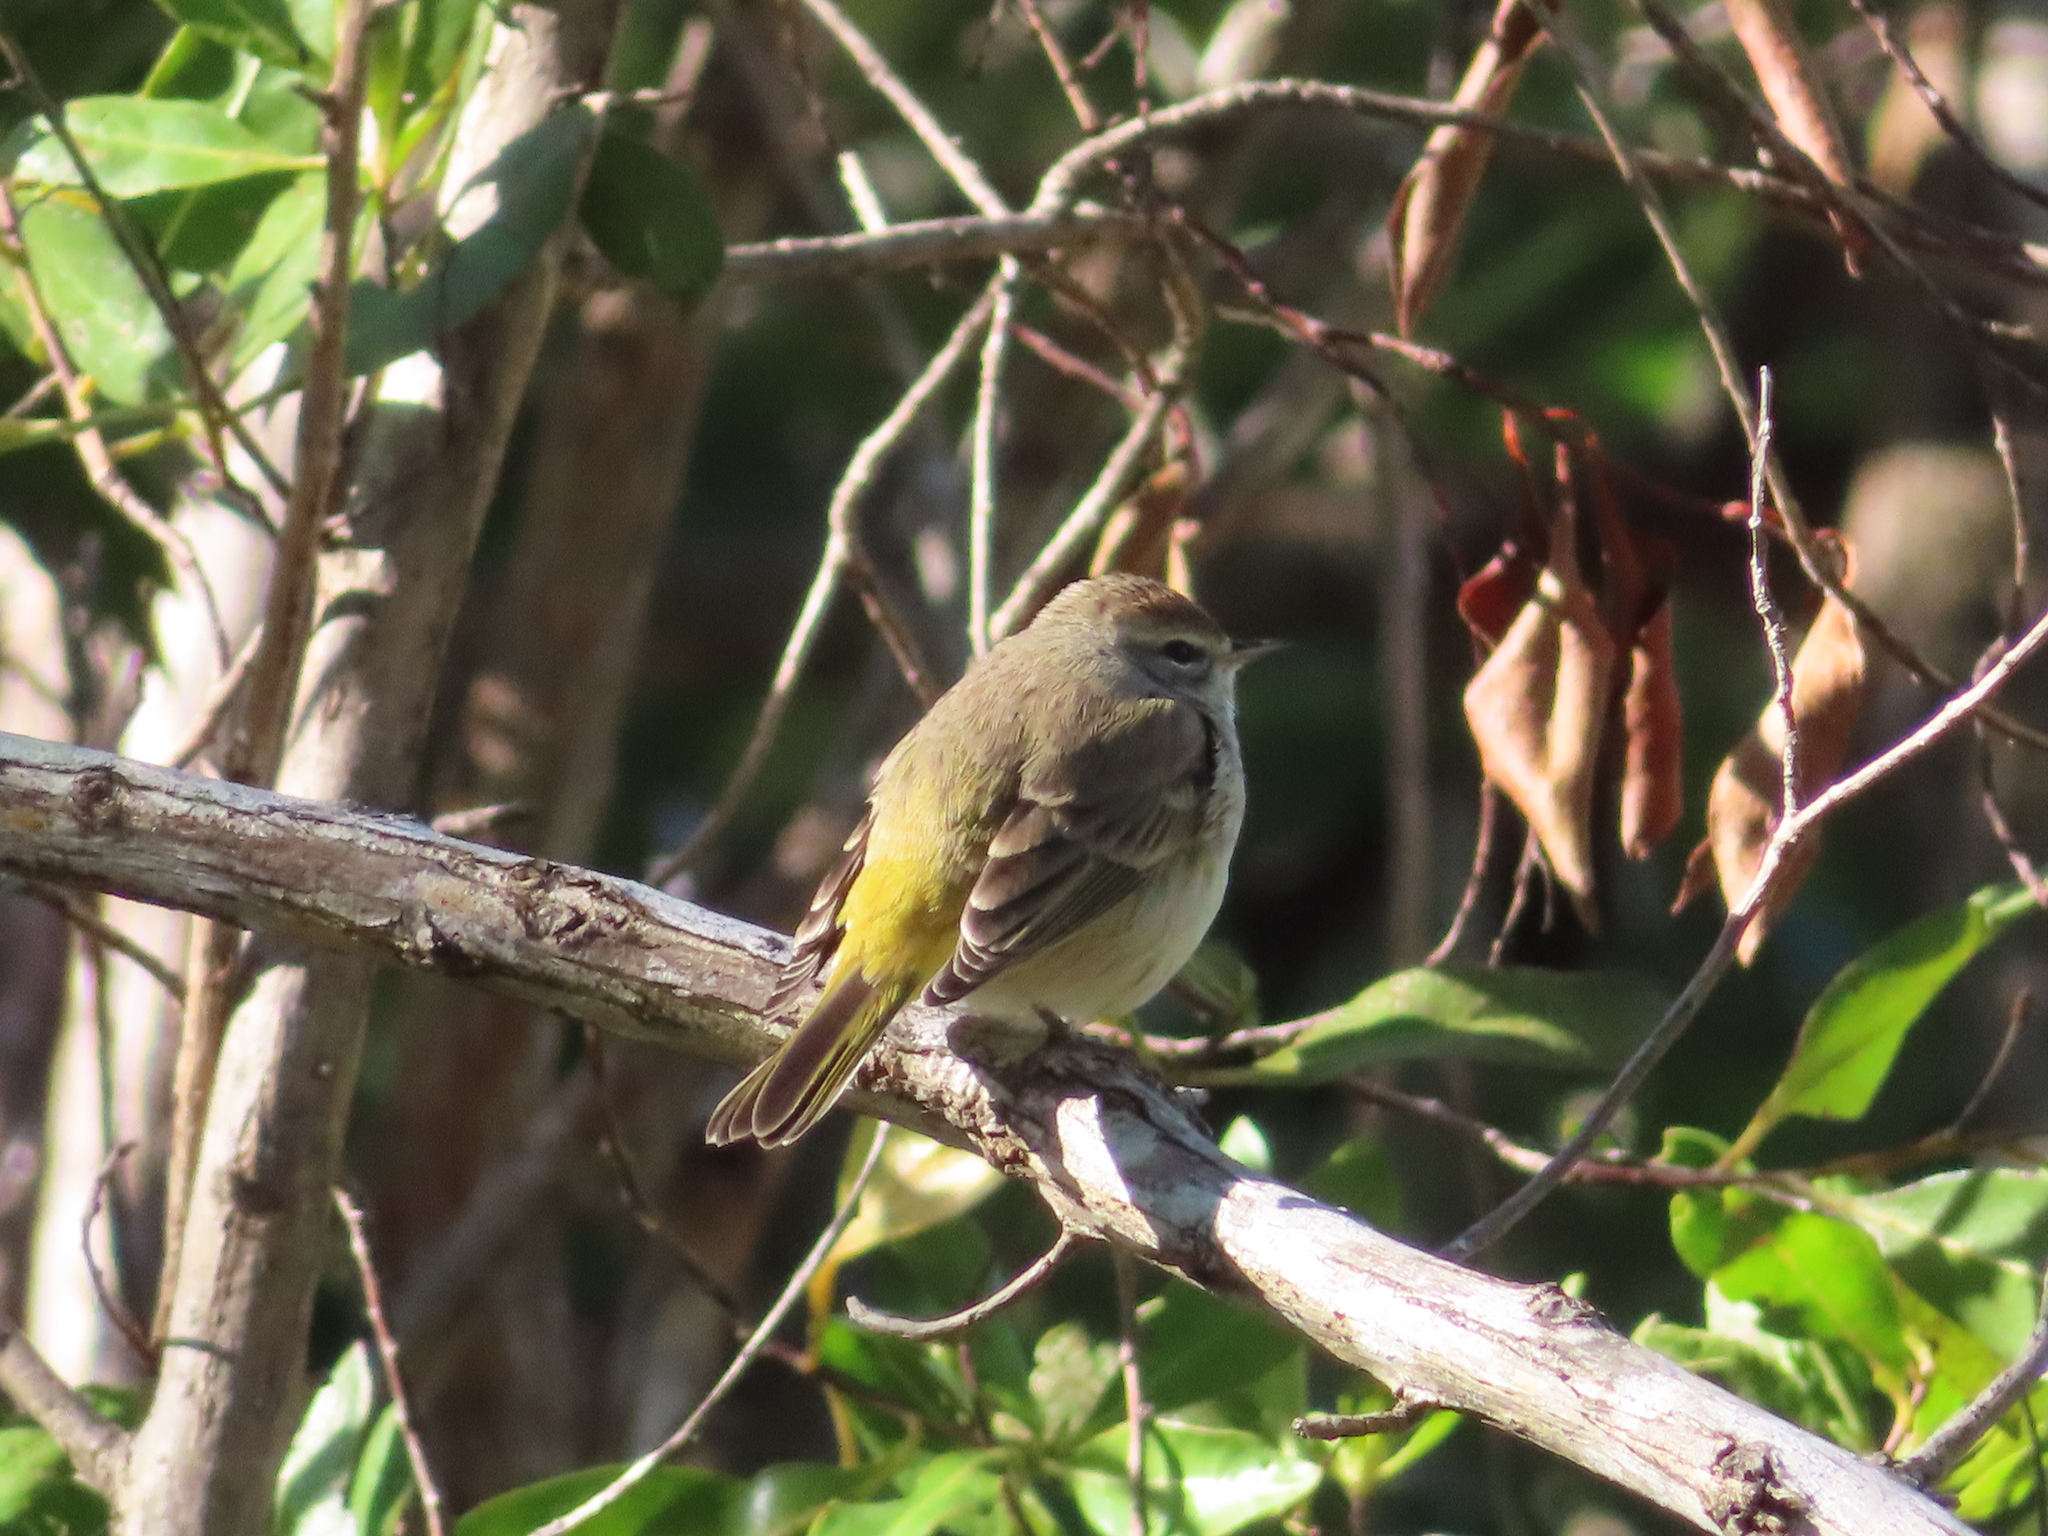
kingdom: Animalia
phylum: Chordata
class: Aves
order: Passeriformes
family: Parulidae
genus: Setophaga
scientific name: Setophaga palmarum
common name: Palm warbler
